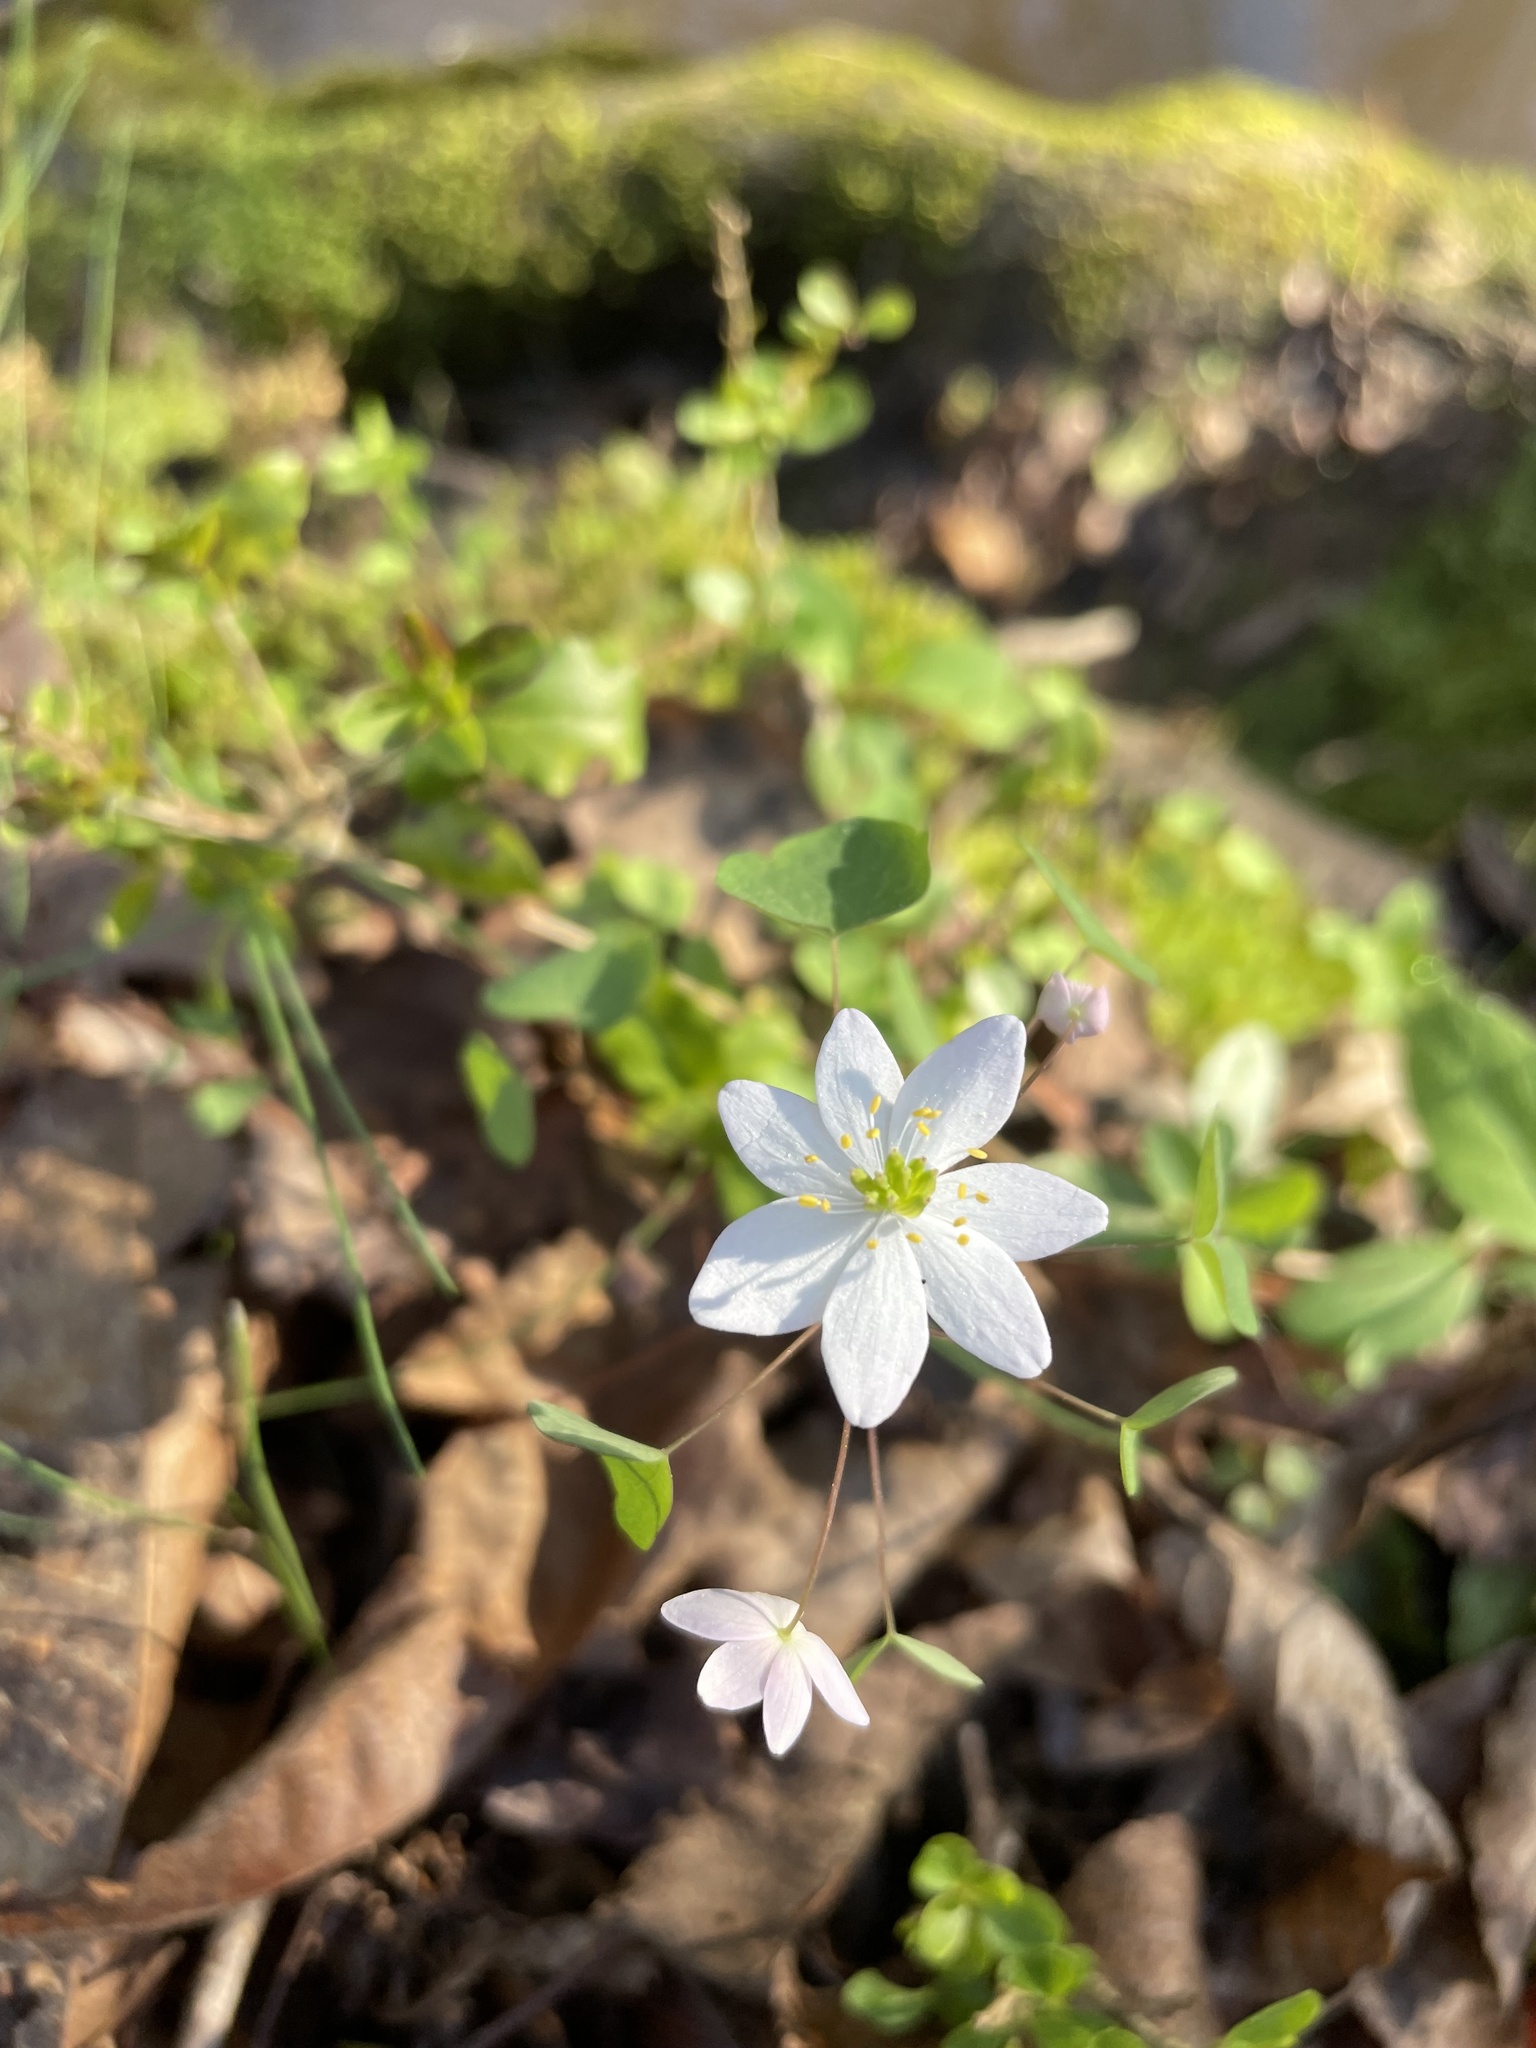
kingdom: Plantae
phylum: Tracheophyta
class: Magnoliopsida
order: Ranunculales
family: Ranunculaceae
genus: Thalictrum
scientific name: Thalictrum thalictroides
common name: Rue-anemone
